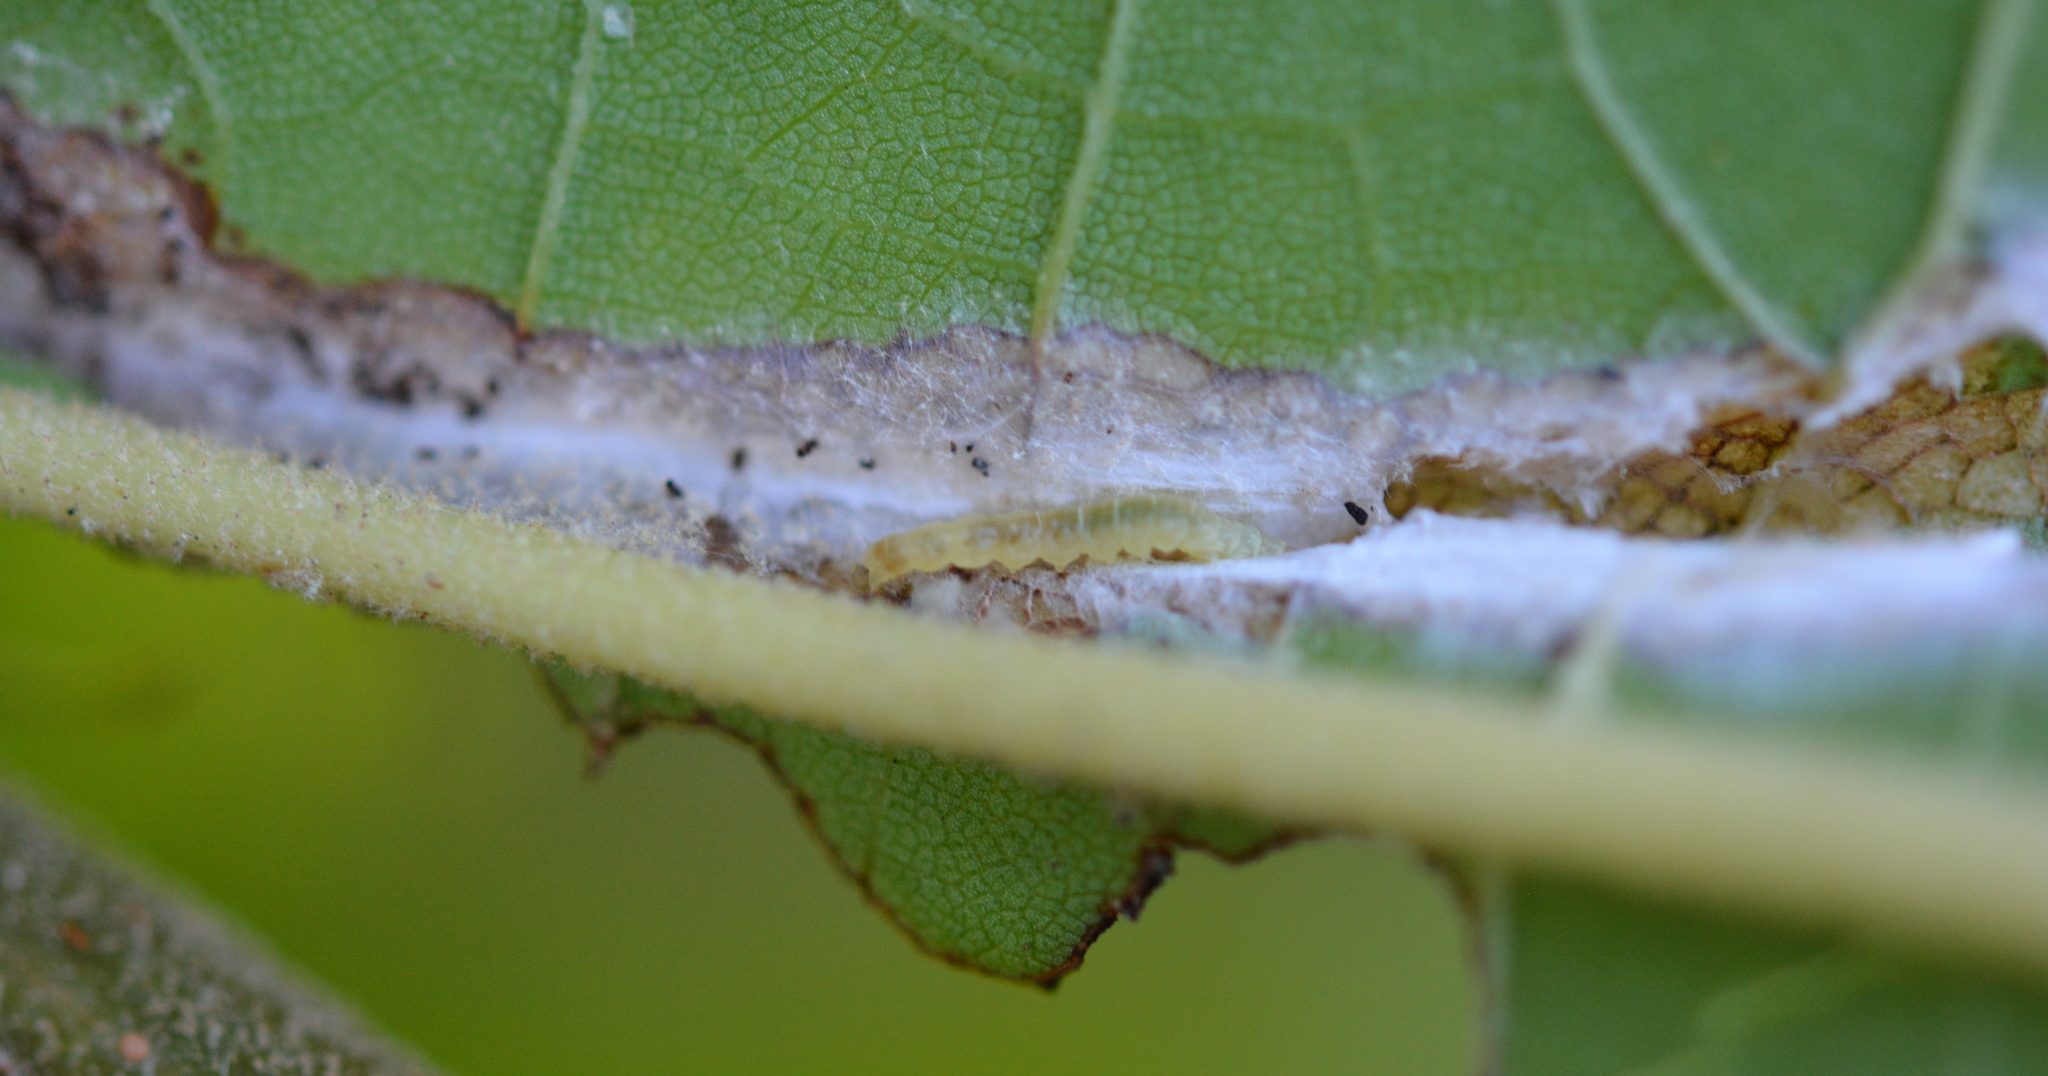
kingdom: Animalia
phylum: Arthropoda
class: Insecta
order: Lepidoptera
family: Tortricidae
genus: Ancylis
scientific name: Ancylis platanana
